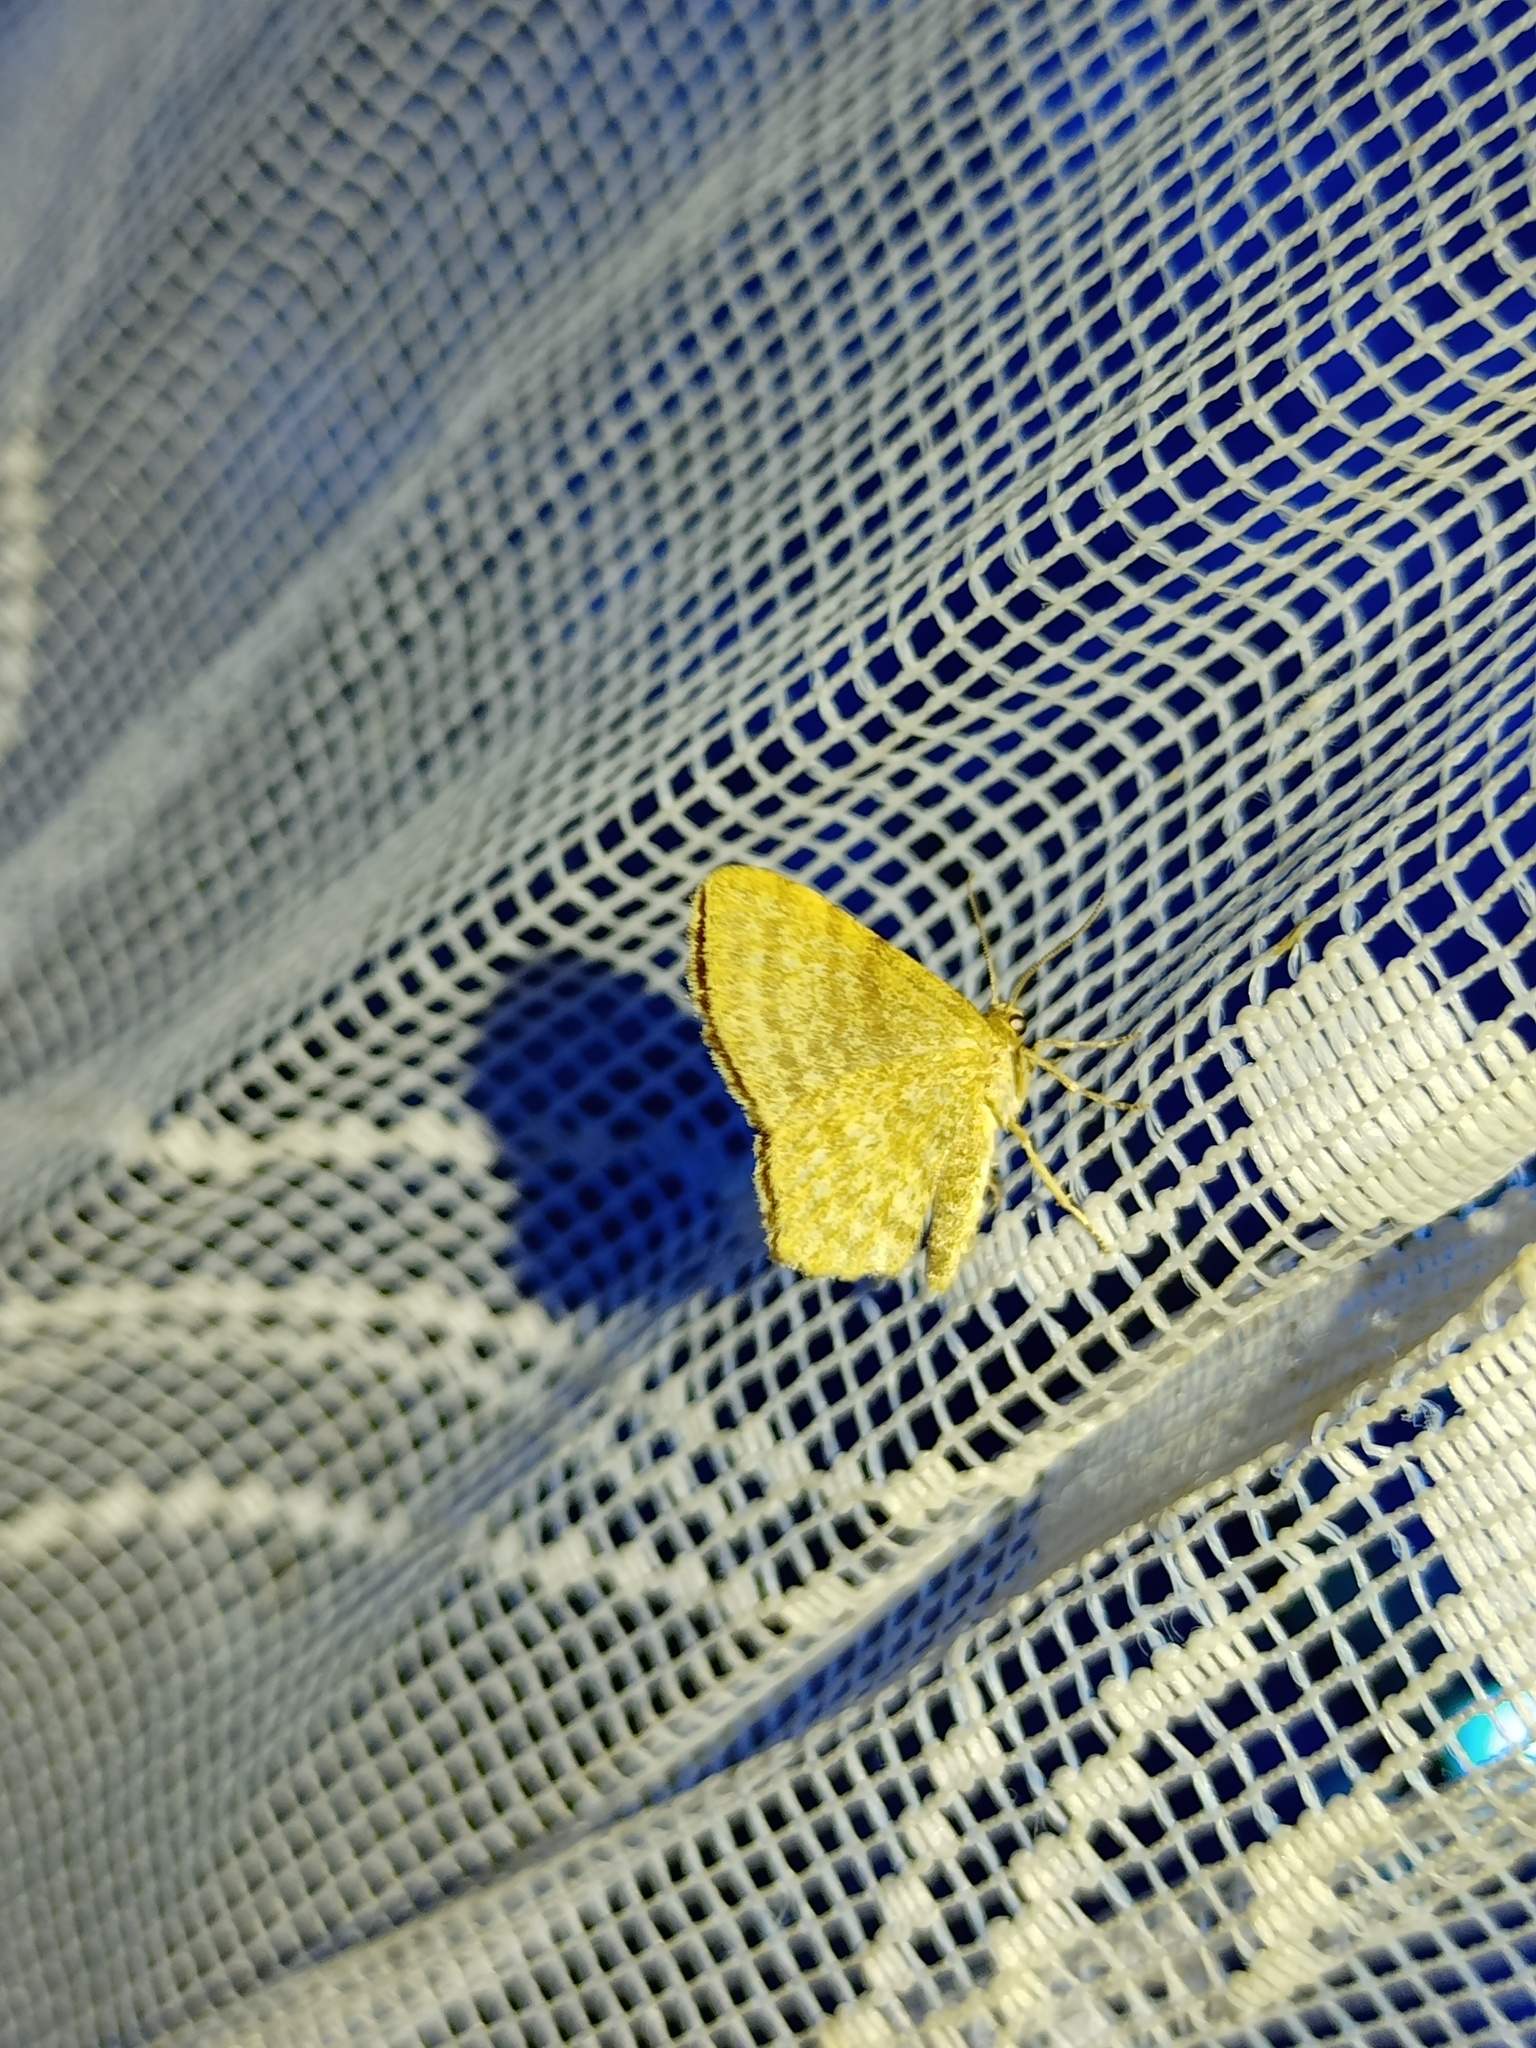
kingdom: Animalia
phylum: Arthropoda
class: Insecta
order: Lepidoptera
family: Geometridae
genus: Euchoeca
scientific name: Euchoeca nebulata
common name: Dingy shell
